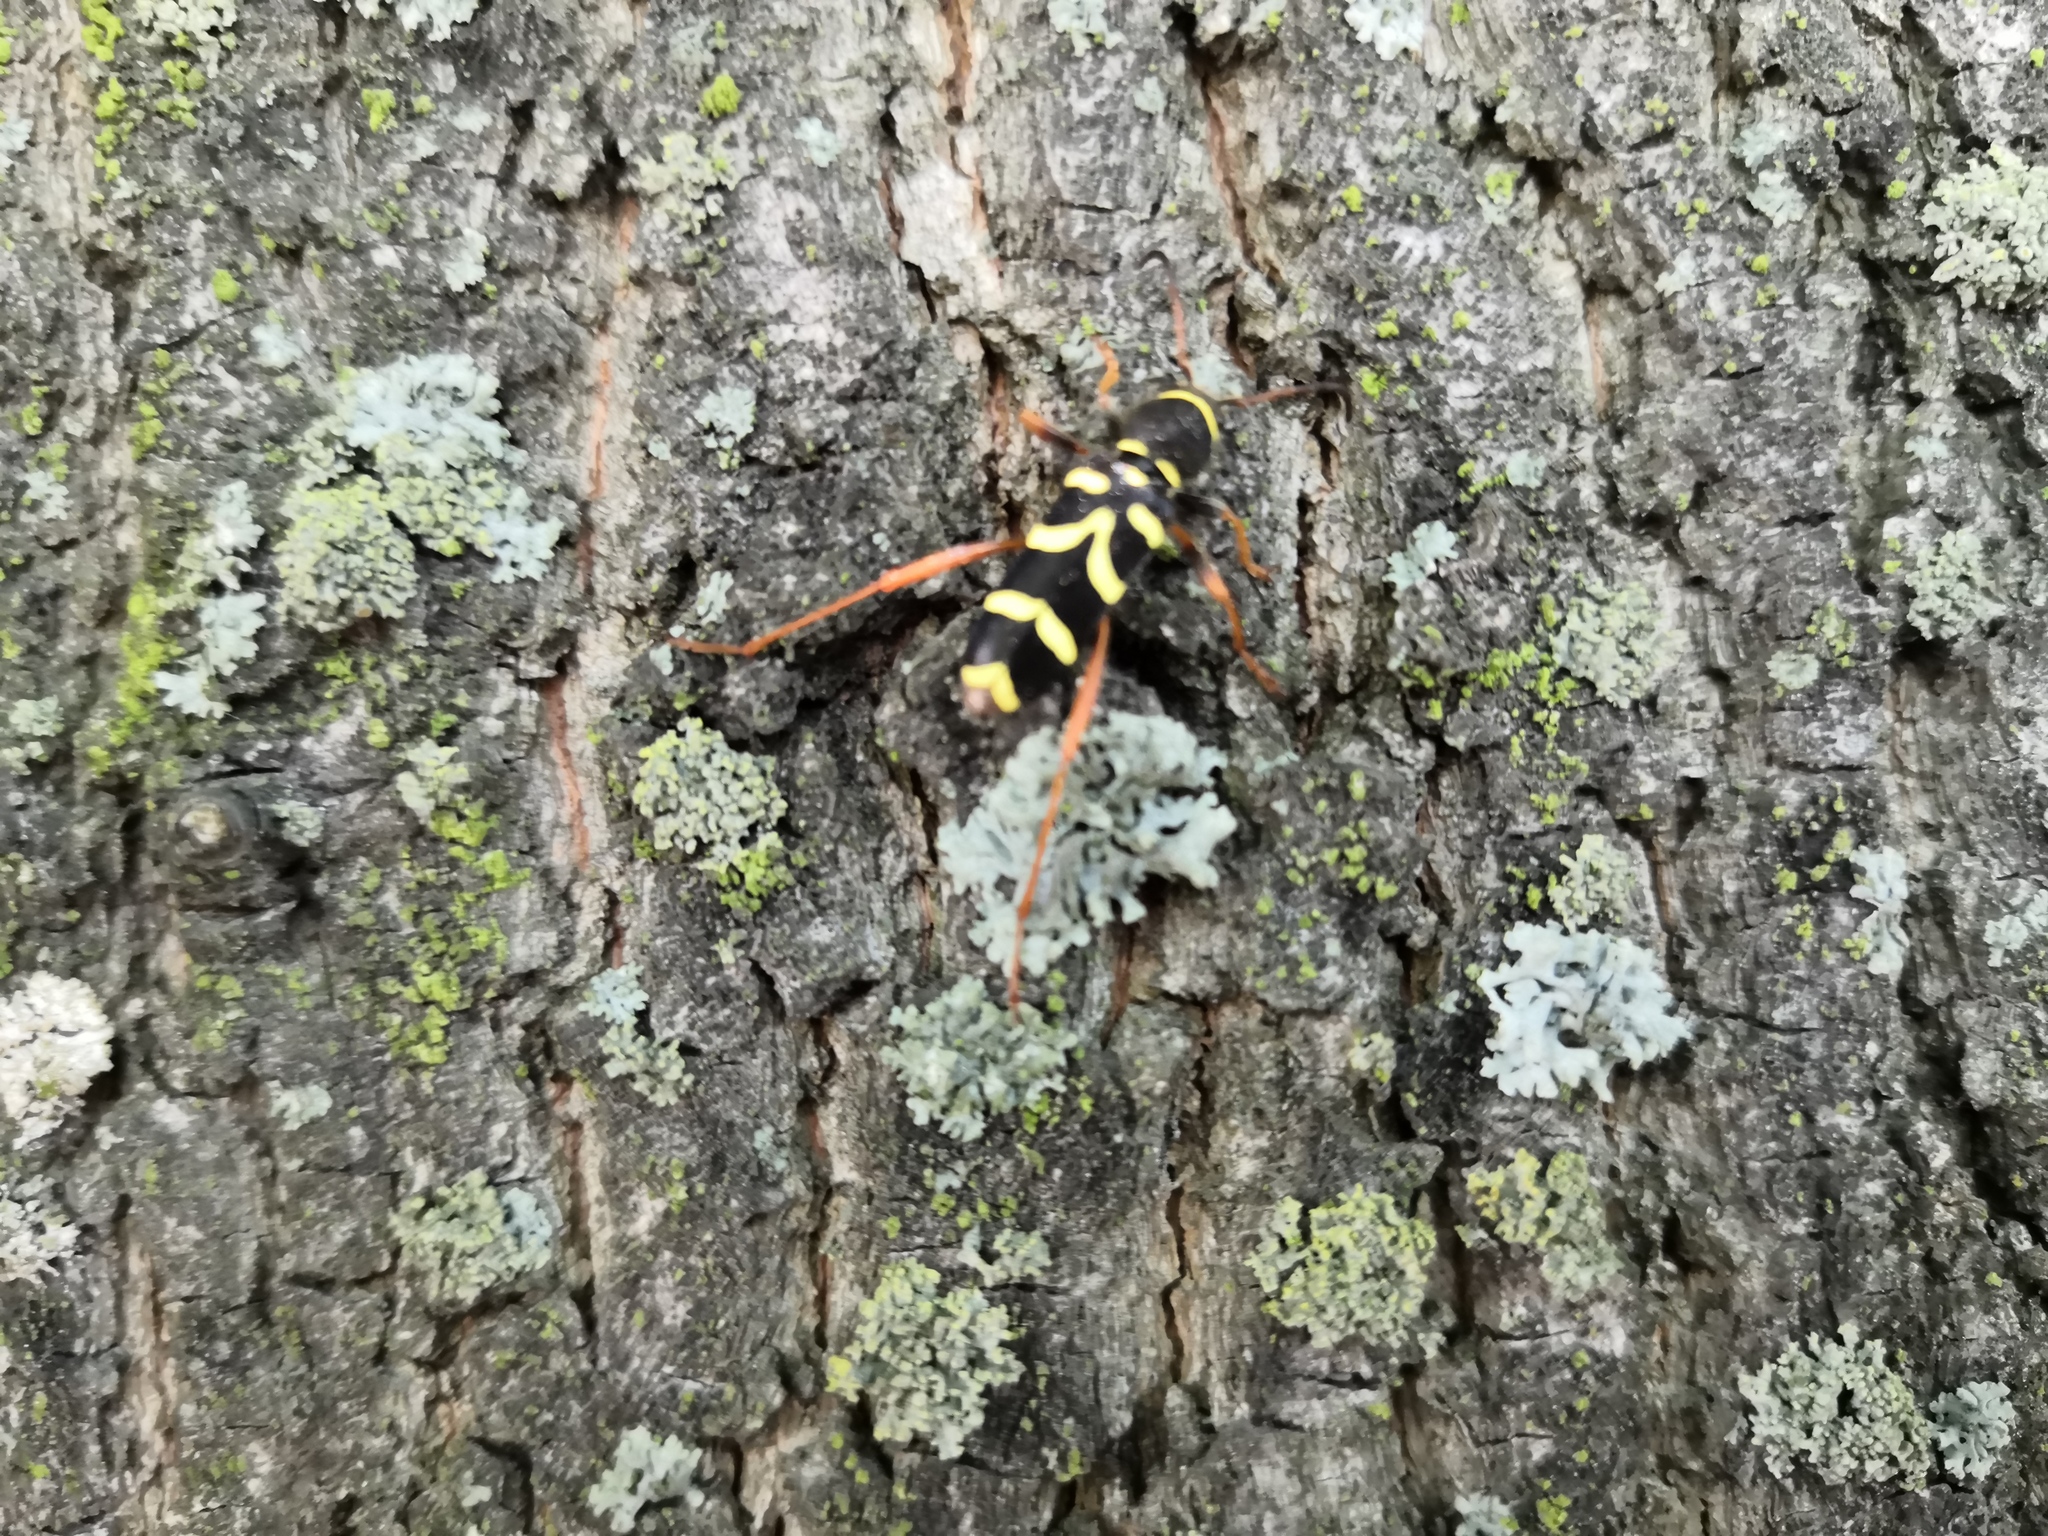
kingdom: Animalia
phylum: Arthropoda
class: Insecta
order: Coleoptera
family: Cerambycidae
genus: Clytus
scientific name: Clytus arietis
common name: Wasp beetle
